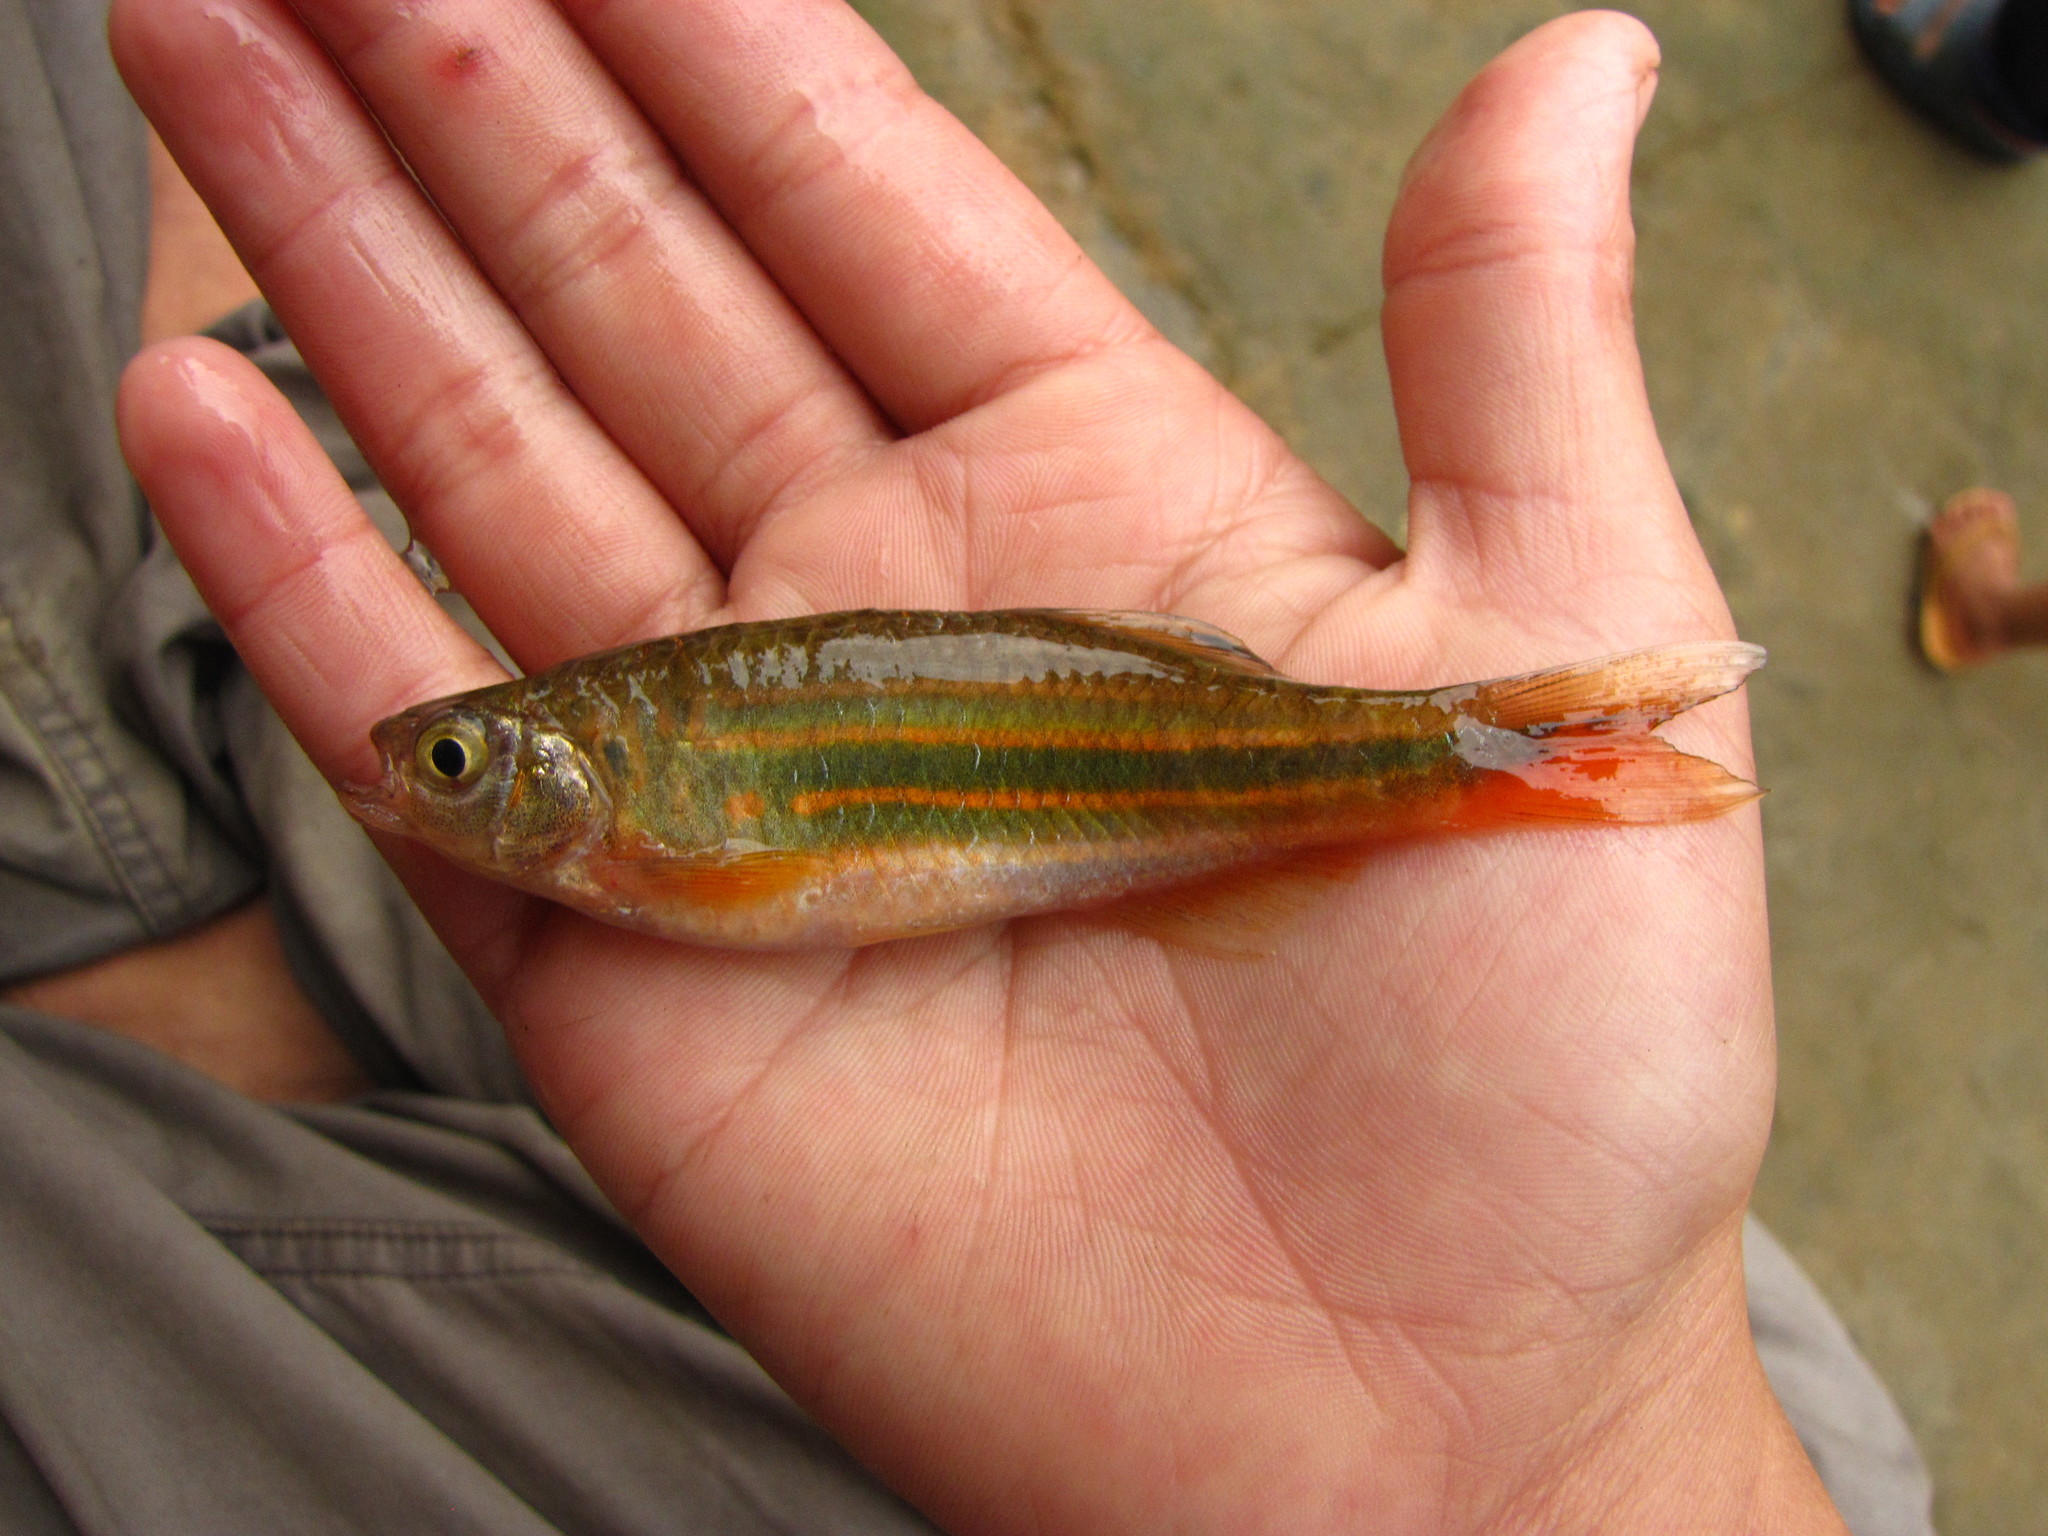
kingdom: Animalia
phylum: Chordata
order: Cypriniformes
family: Cyprinidae
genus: Devario
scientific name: Devario aequipinnatus
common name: Giant danio
